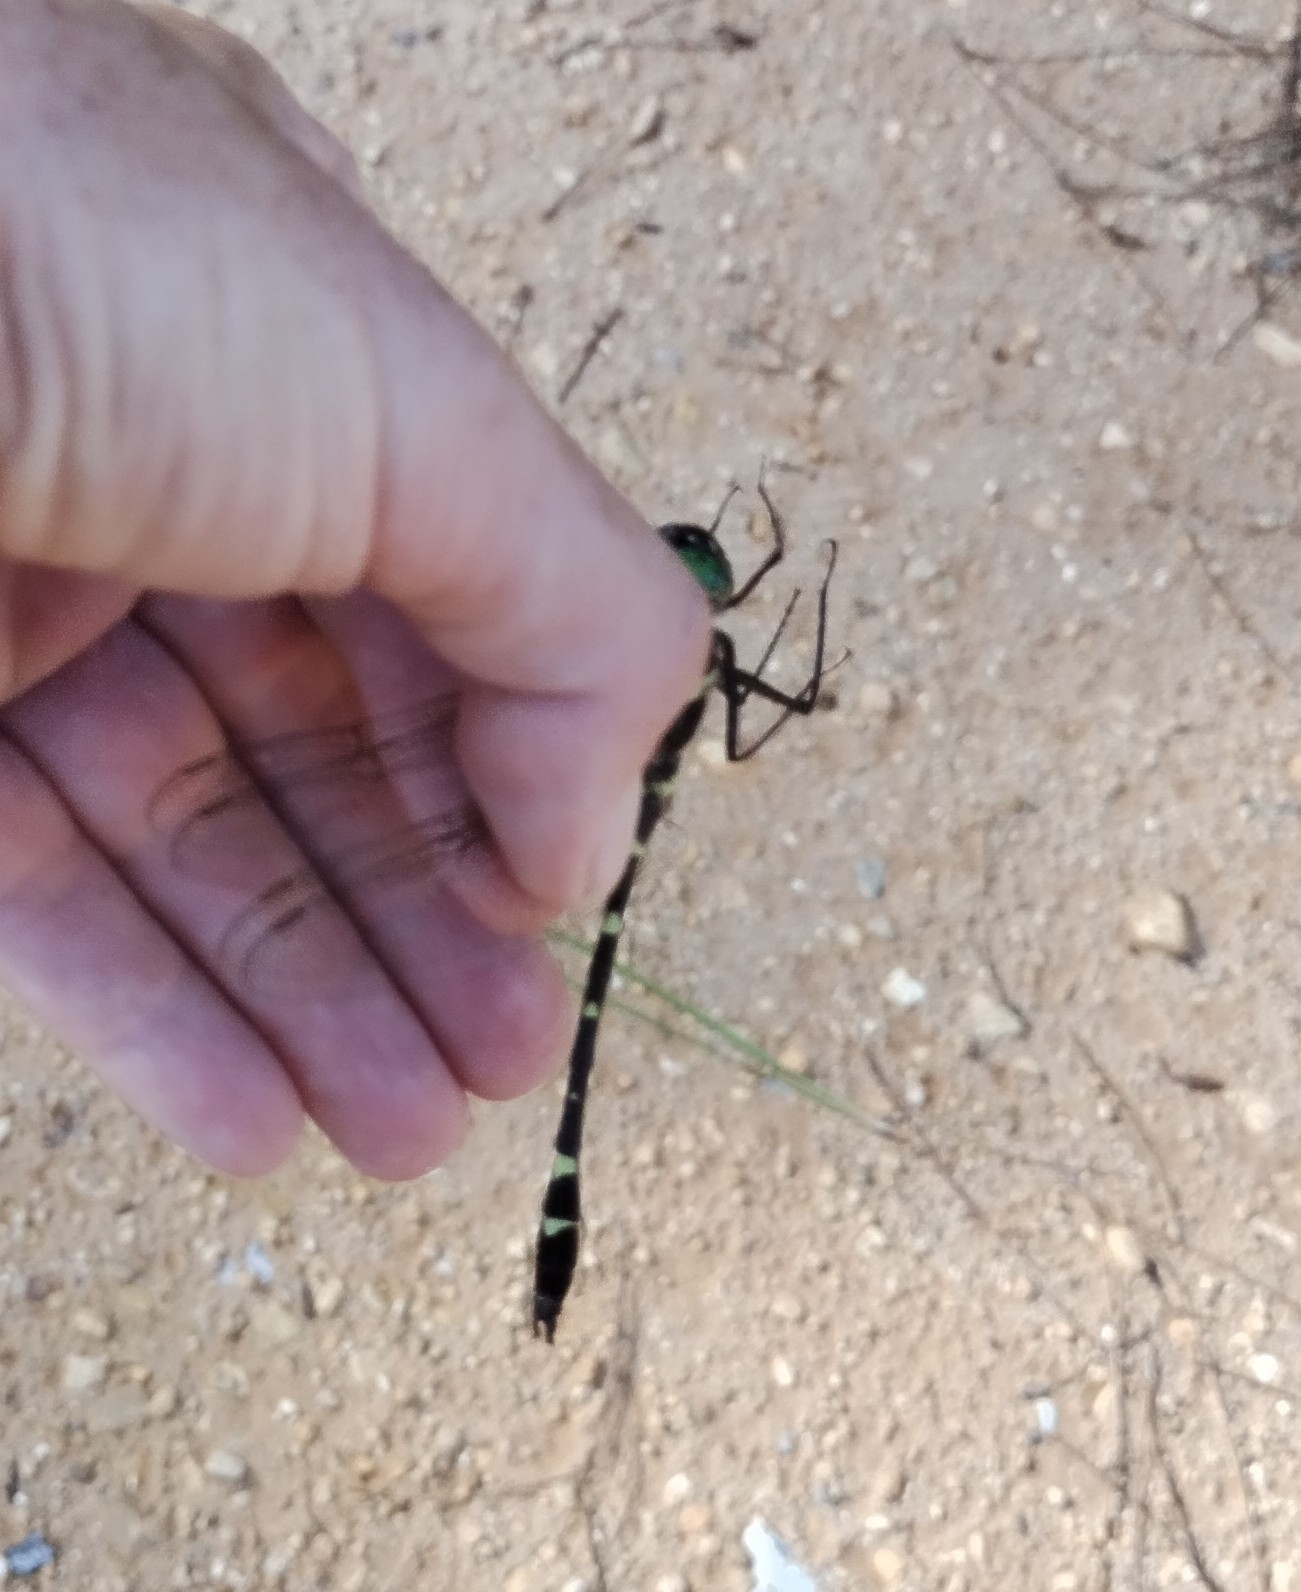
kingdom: Animalia
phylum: Arthropoda
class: Insecta
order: Odonata
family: Macromiidae
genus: Macromia
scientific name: Macromia illinoiensis
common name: Swift river cruiser
